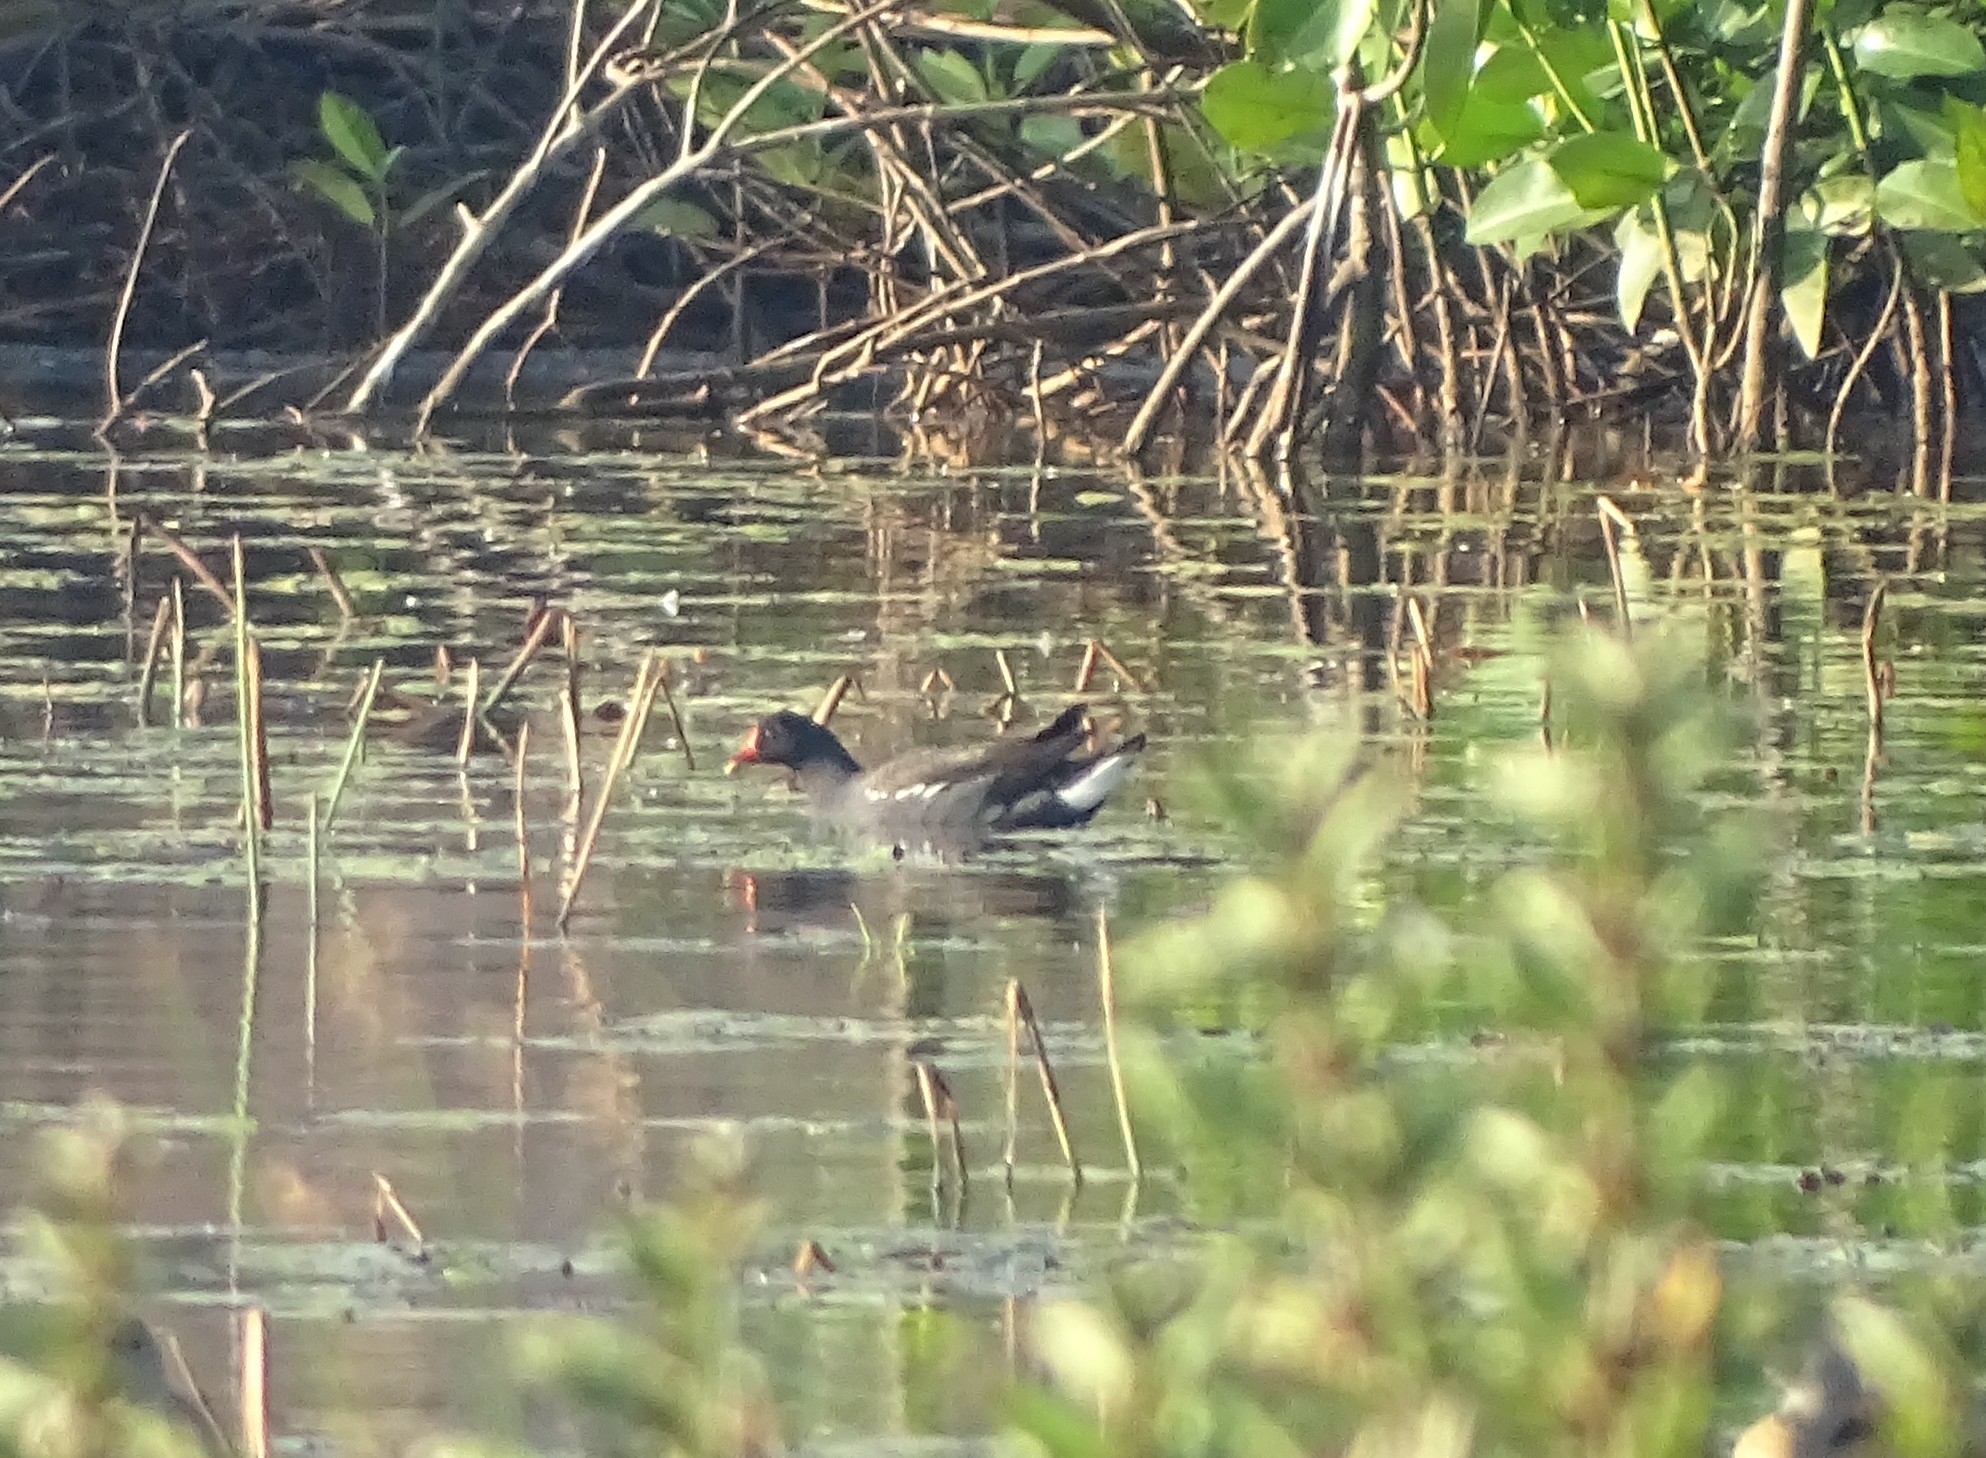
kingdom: Animalia
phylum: Chordata
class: Aves
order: Gruiformes
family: Rallidae
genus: Gallinula
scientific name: Gallinula chloropus
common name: Common moorhen
